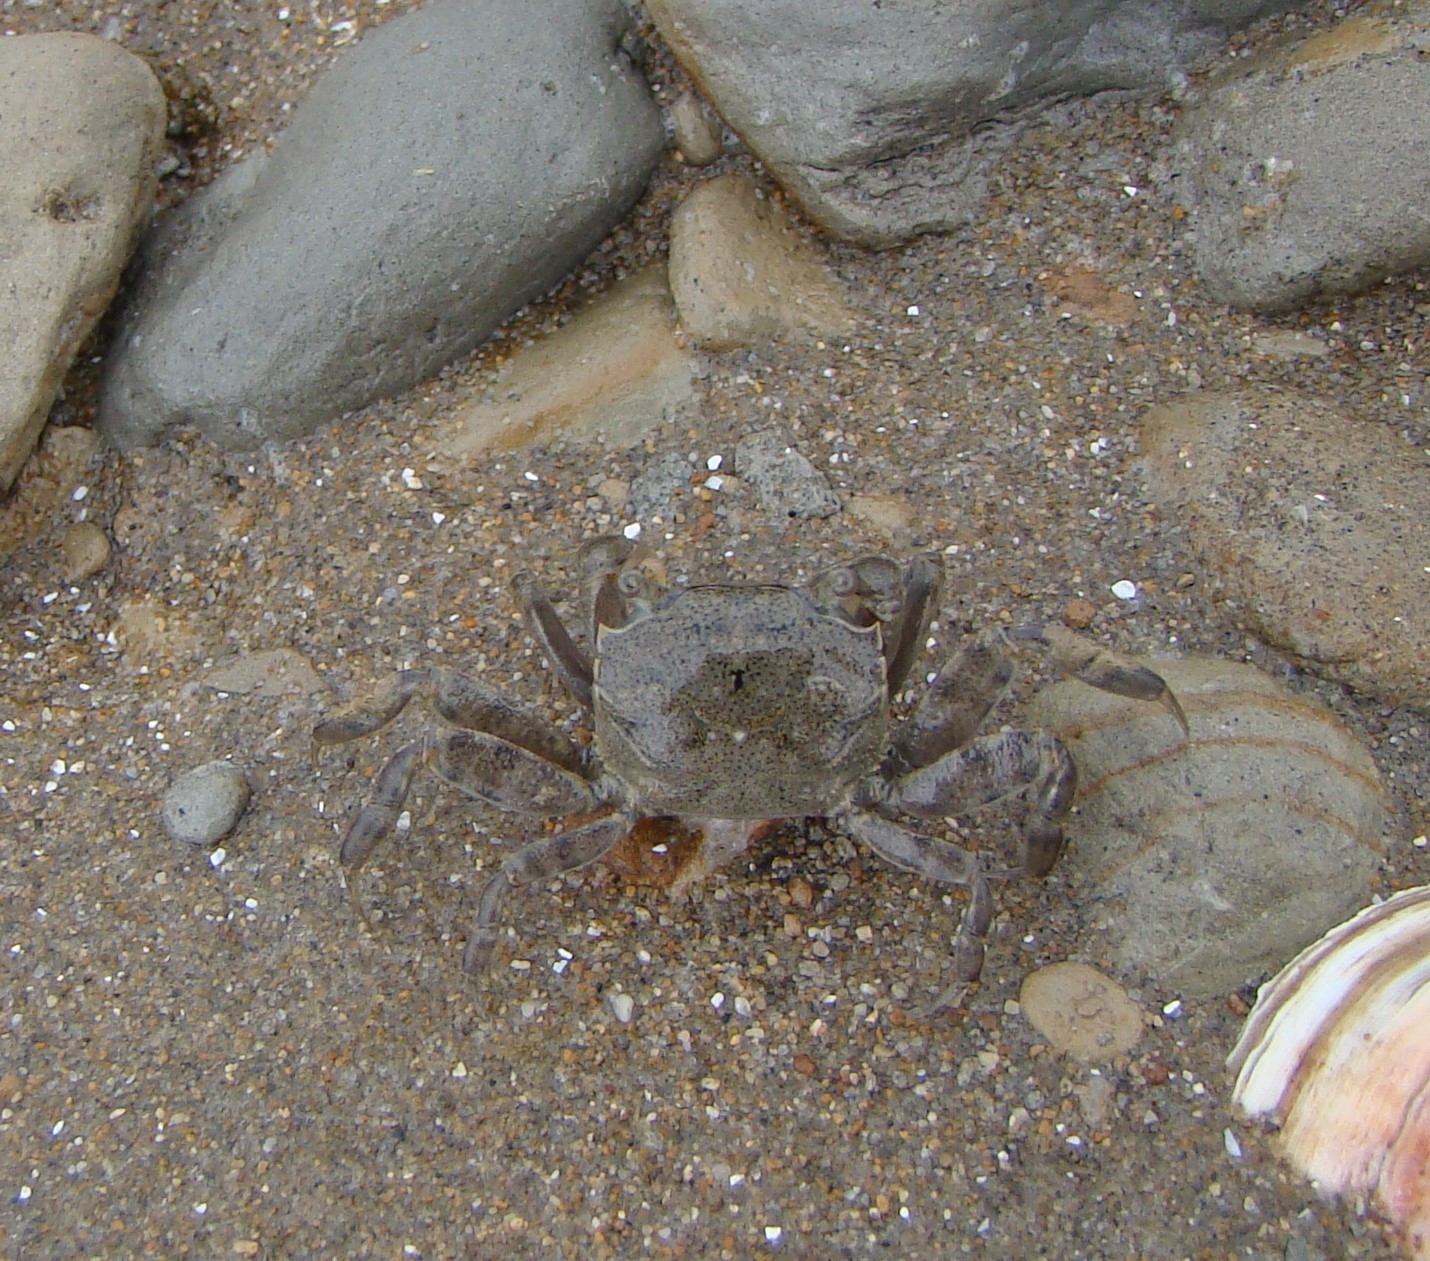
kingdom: Animalia
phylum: Arthropoda
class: Malacostraca
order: Decapoda
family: Varunidae
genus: Austrohelice
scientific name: Austrohelice crassa
